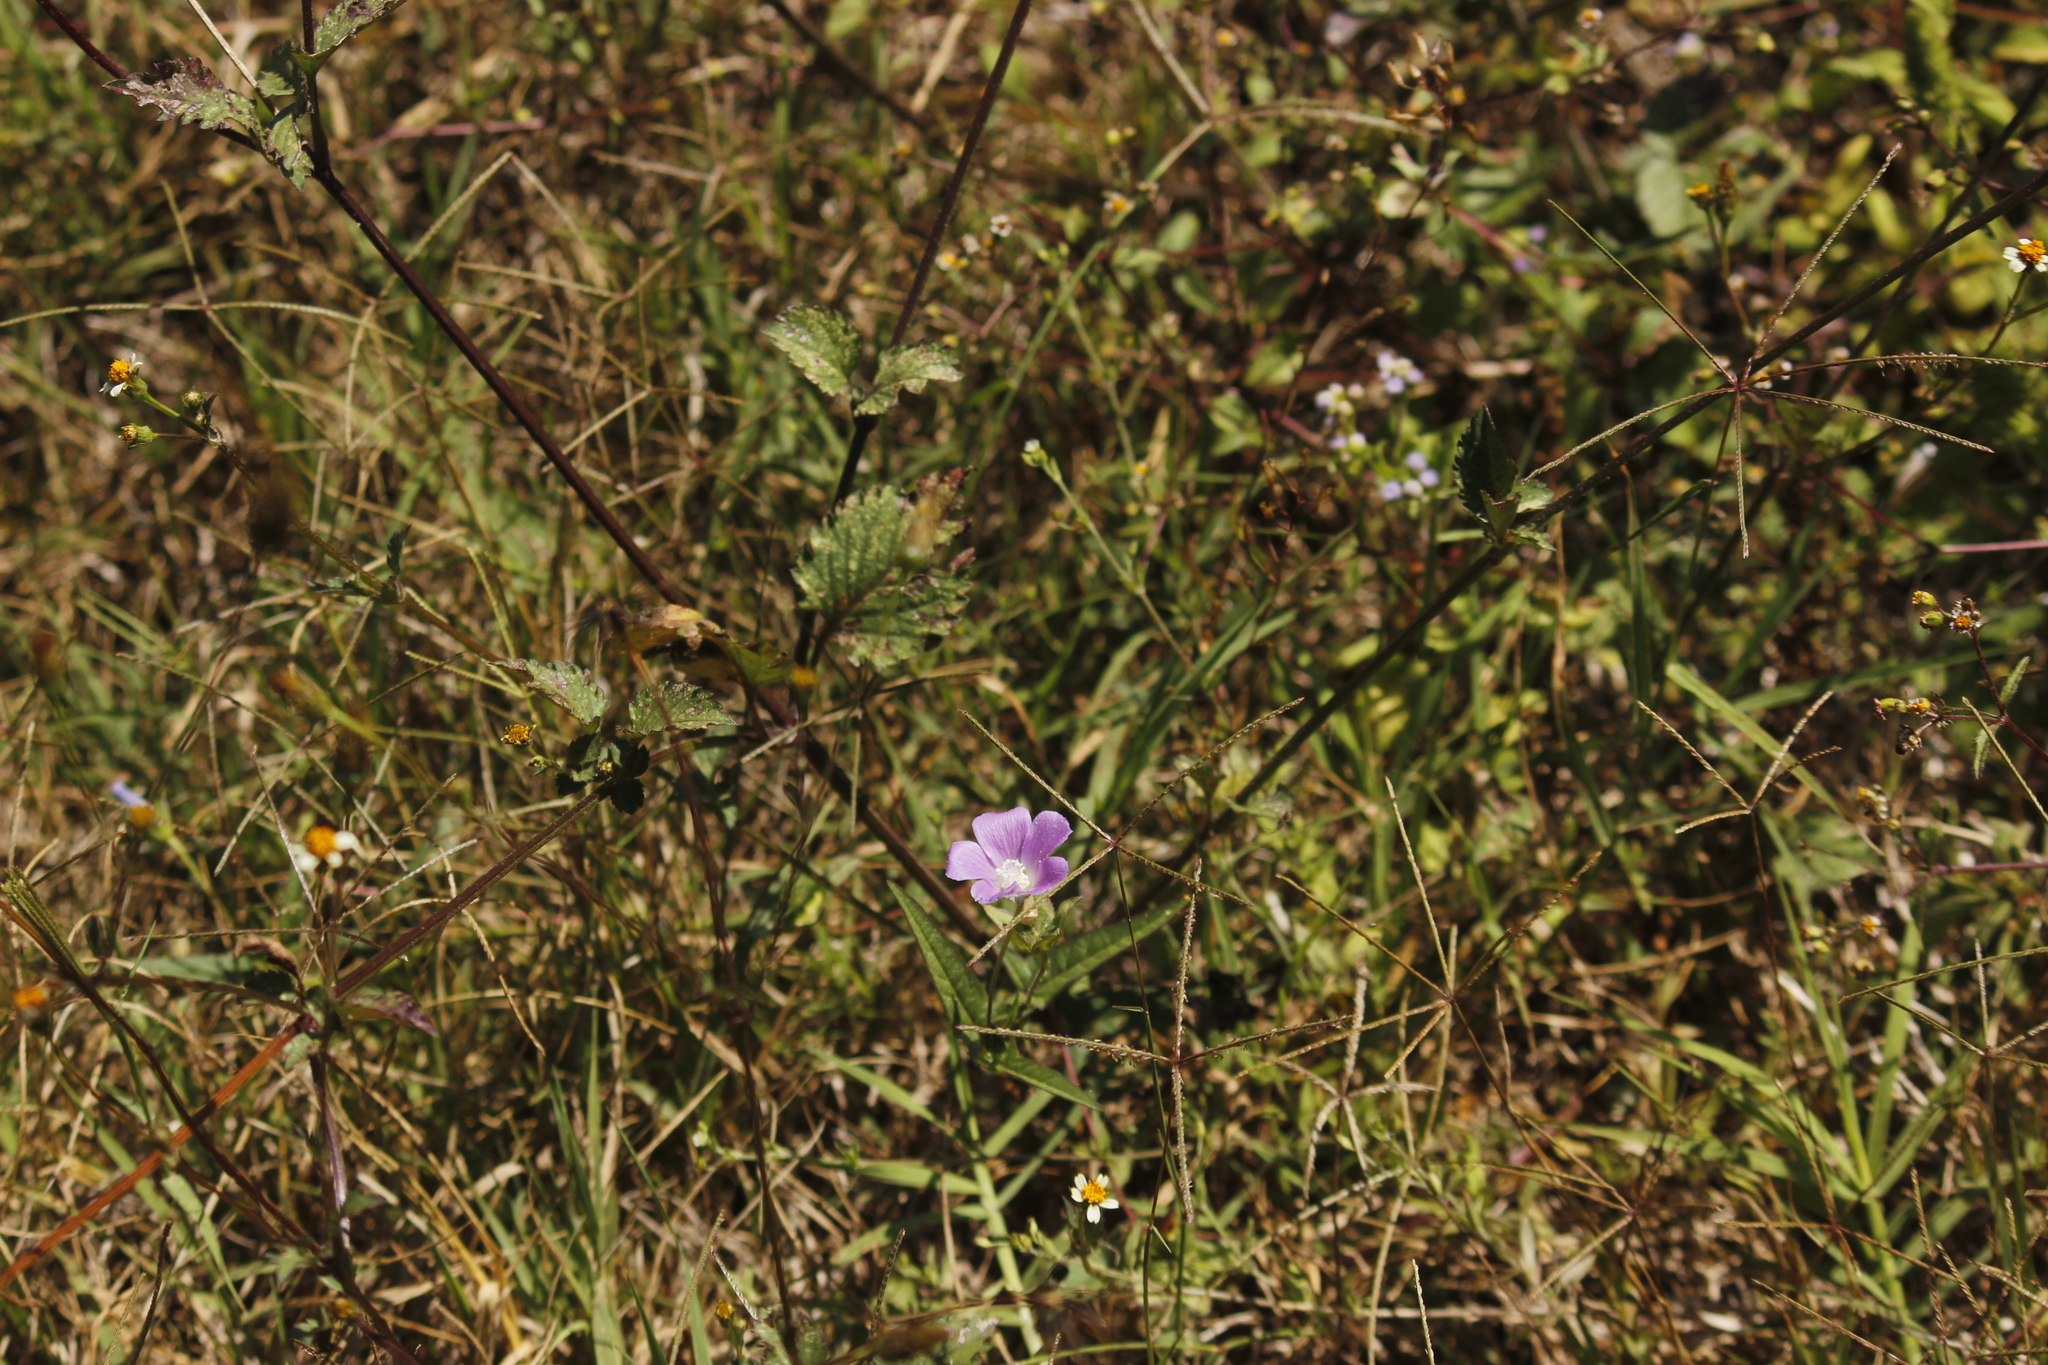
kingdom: Plantae
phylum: Tracheophyta
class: Magnoliopsida
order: Malvales
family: Malvaceae
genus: Anoda
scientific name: Anoda cristata
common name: Spurred anoda
